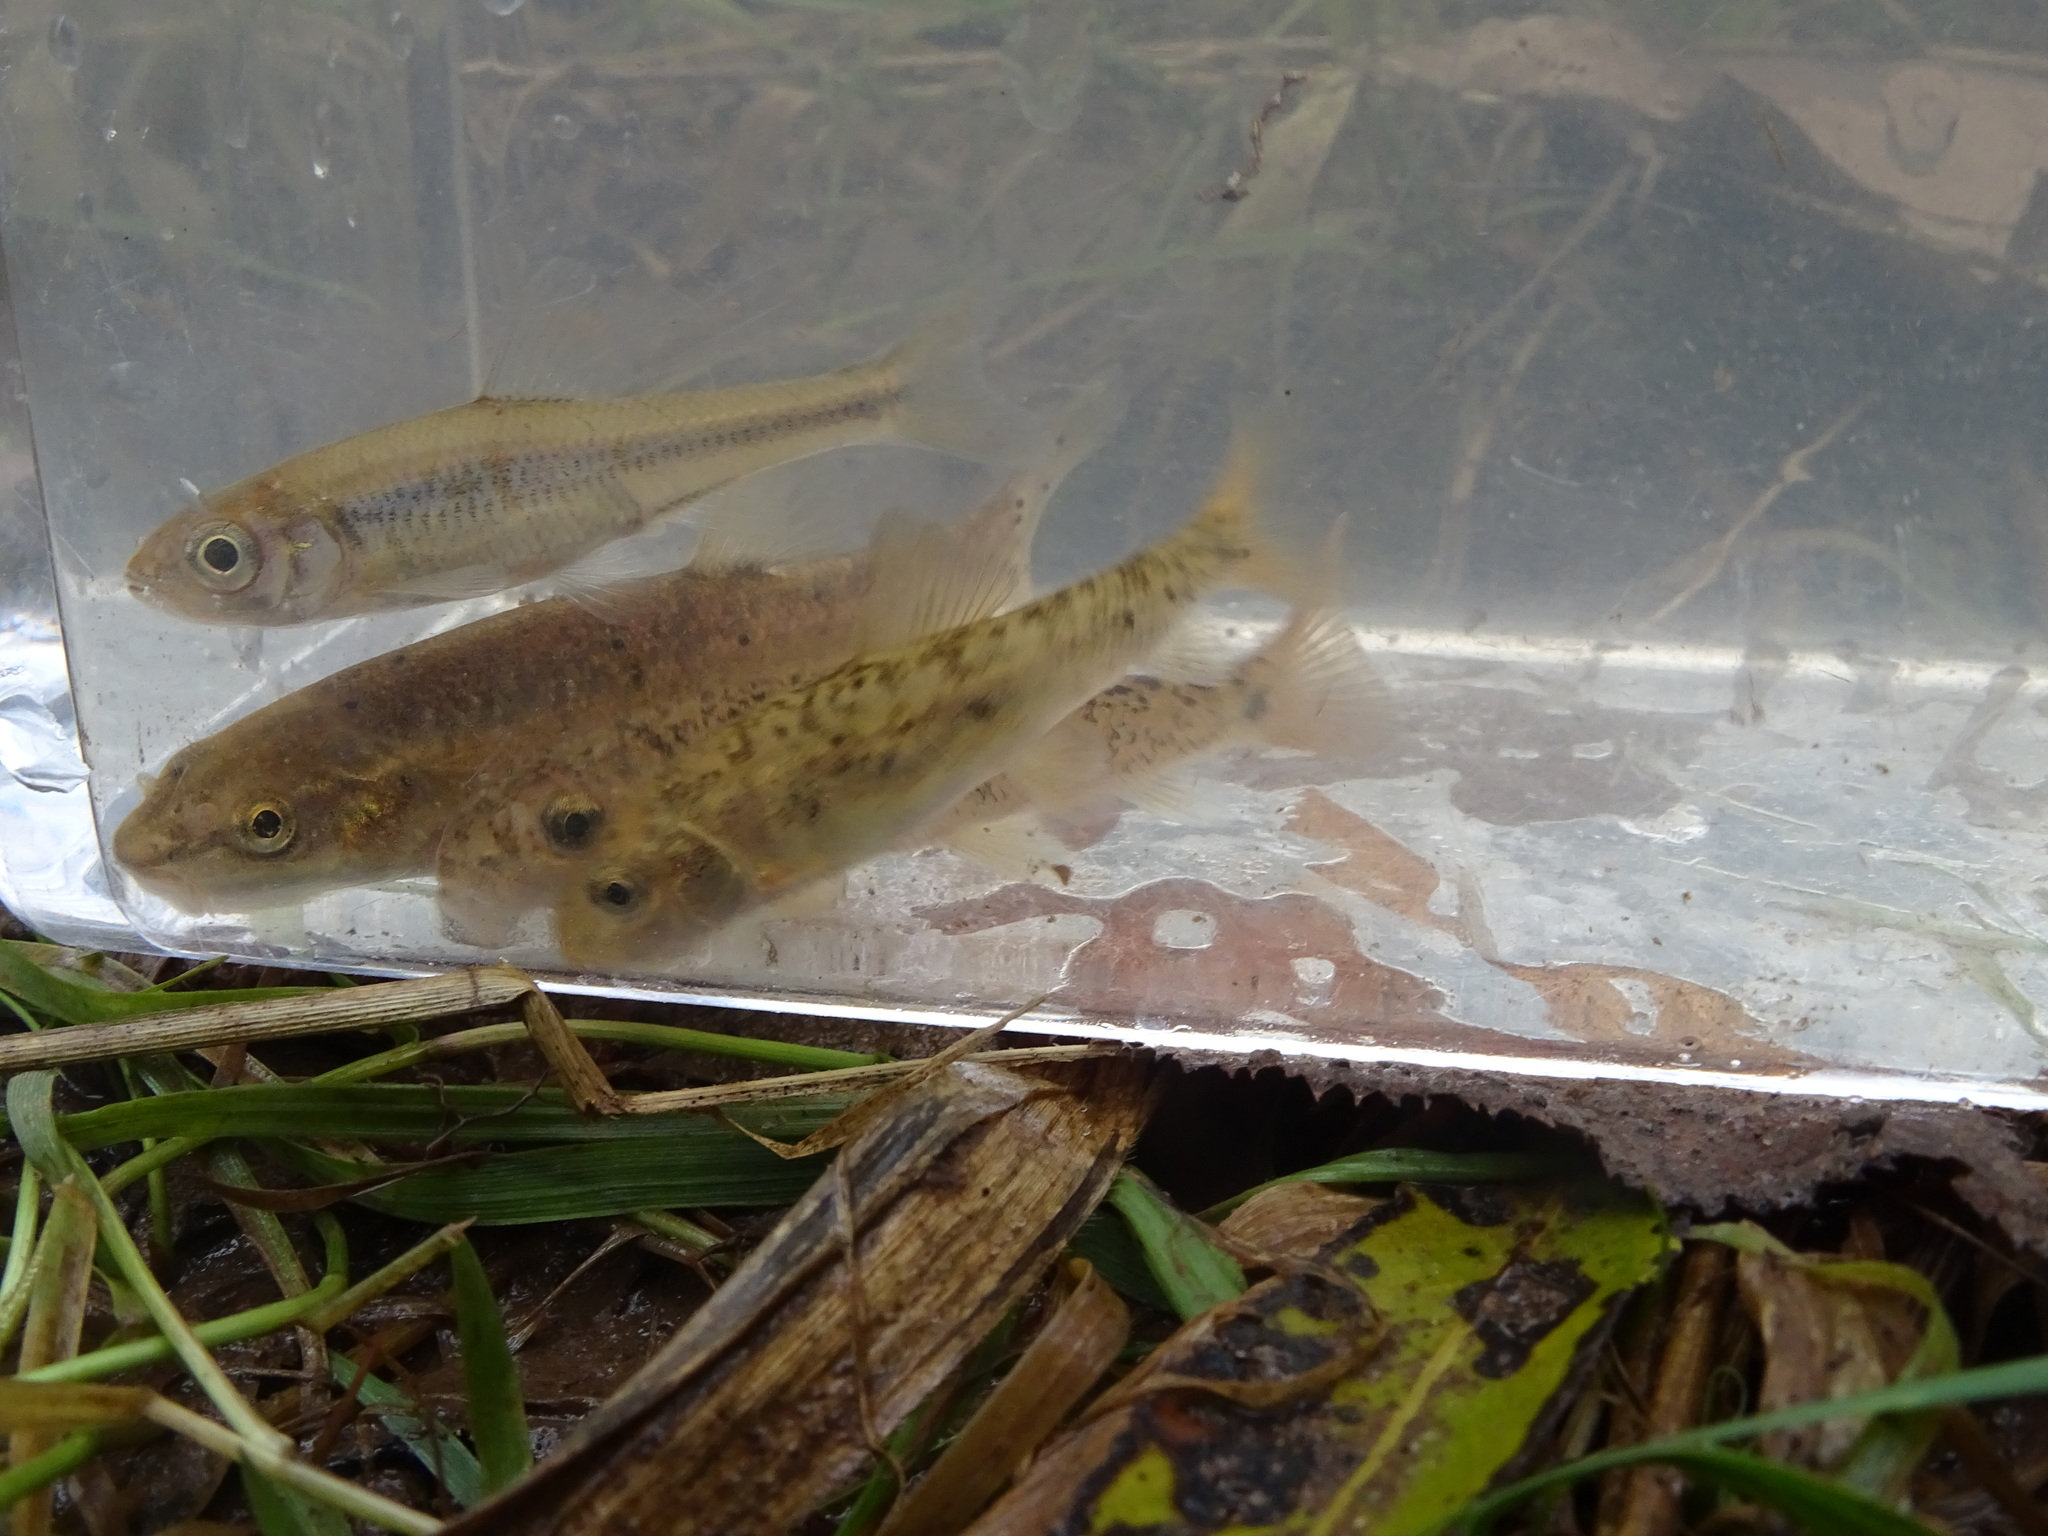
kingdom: Animalia
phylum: Chordata
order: Cypriniformes
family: Catostomidae
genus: Catostomus
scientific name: Catostomus commersonii
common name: White sucker
